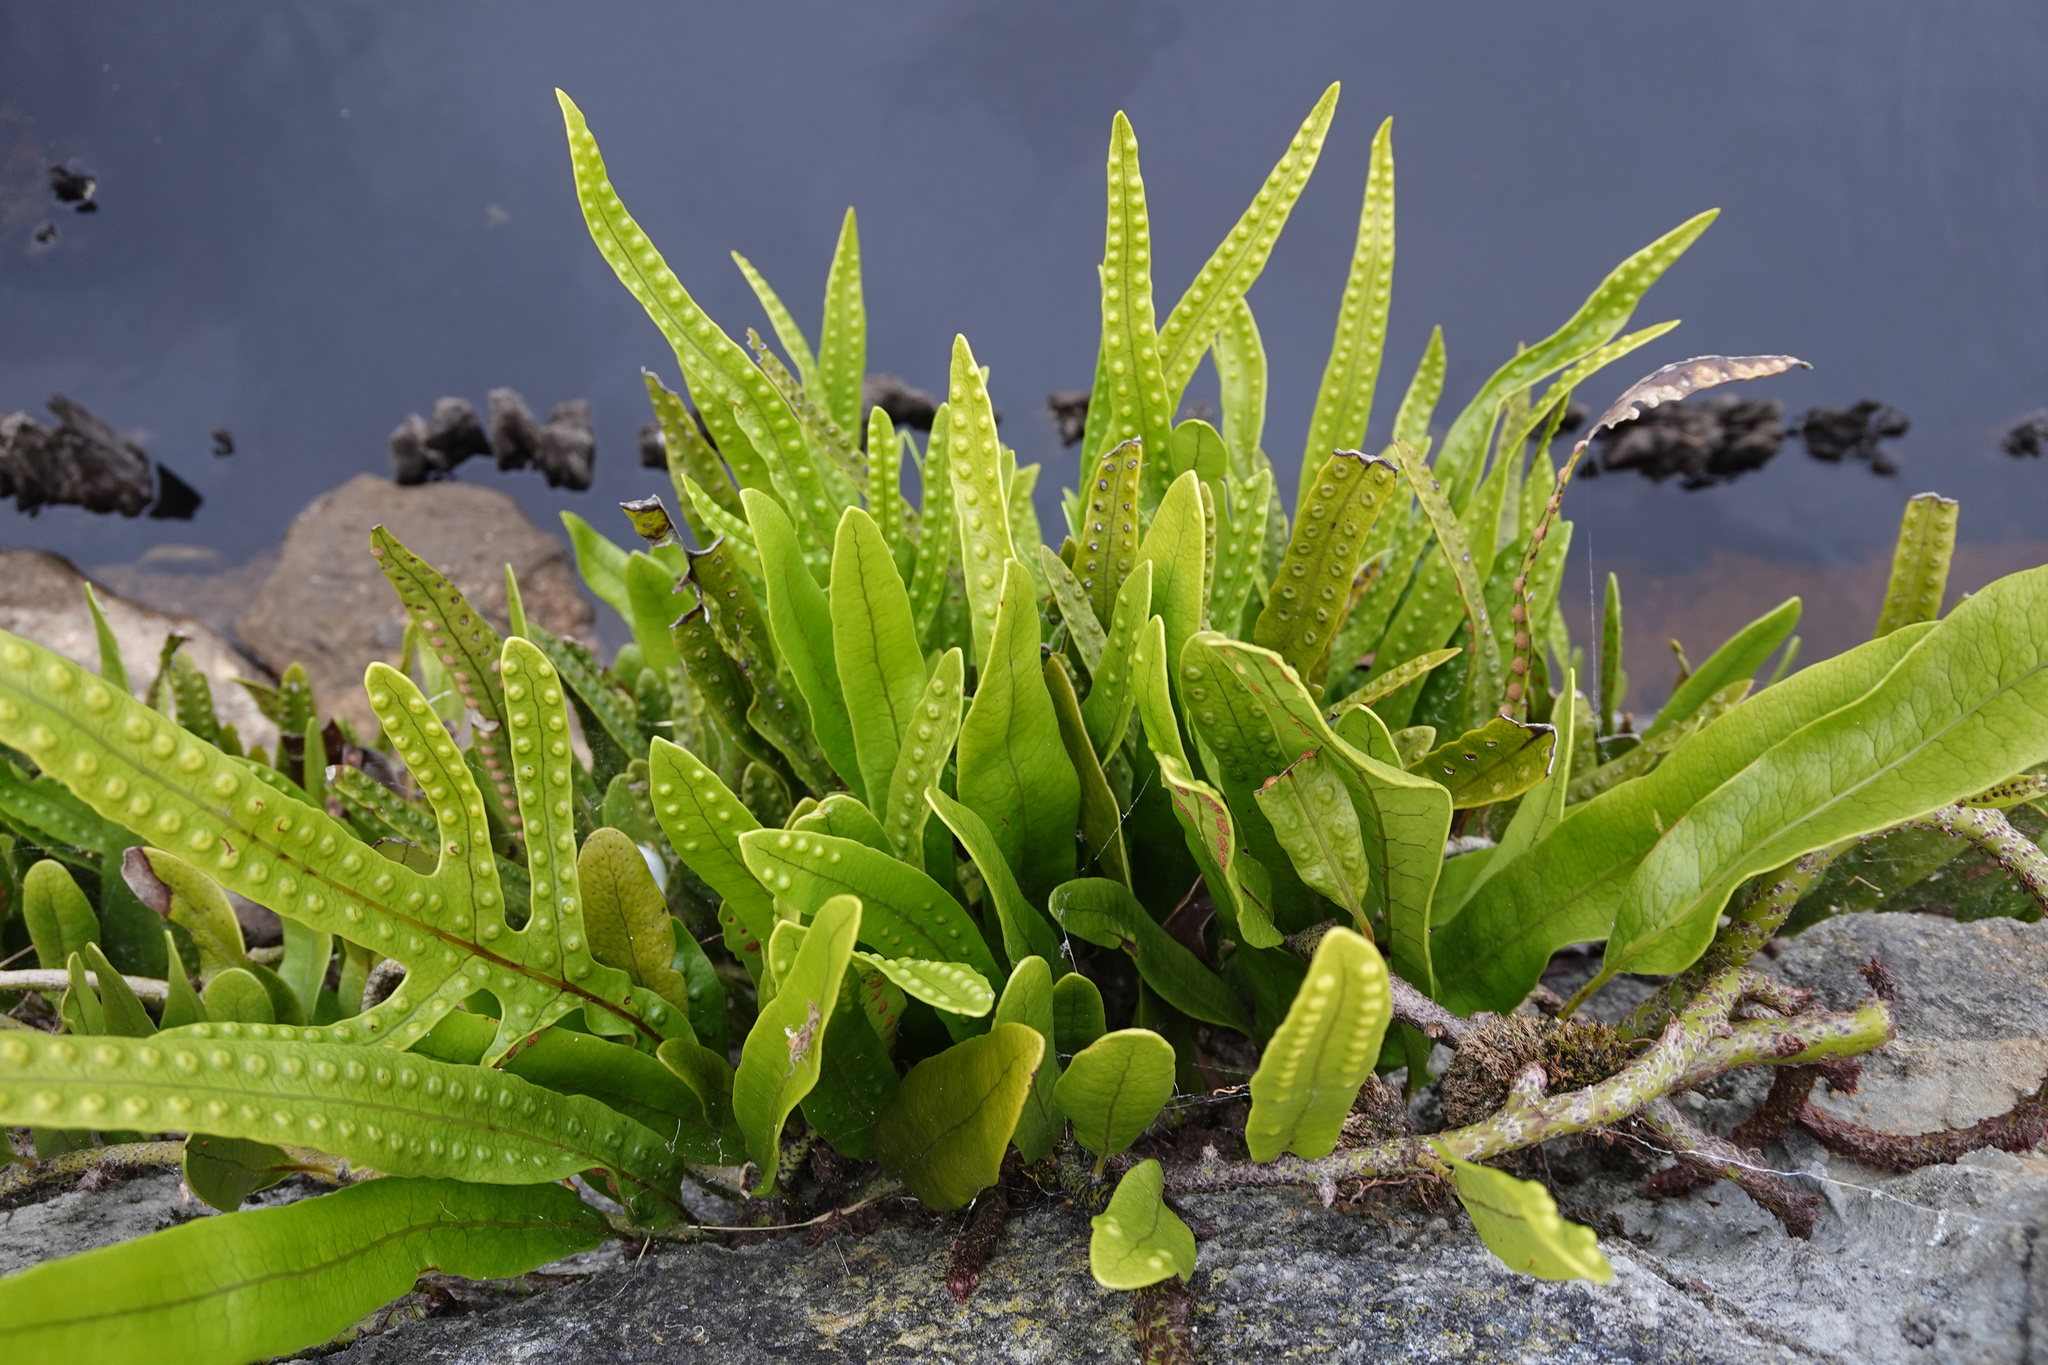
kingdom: Plantae
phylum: Tracheophyta
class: Polypodiopsida
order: Polypodiales
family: Polypodiaceae
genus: Lecanopteris
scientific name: Lecanopteris pustulata
